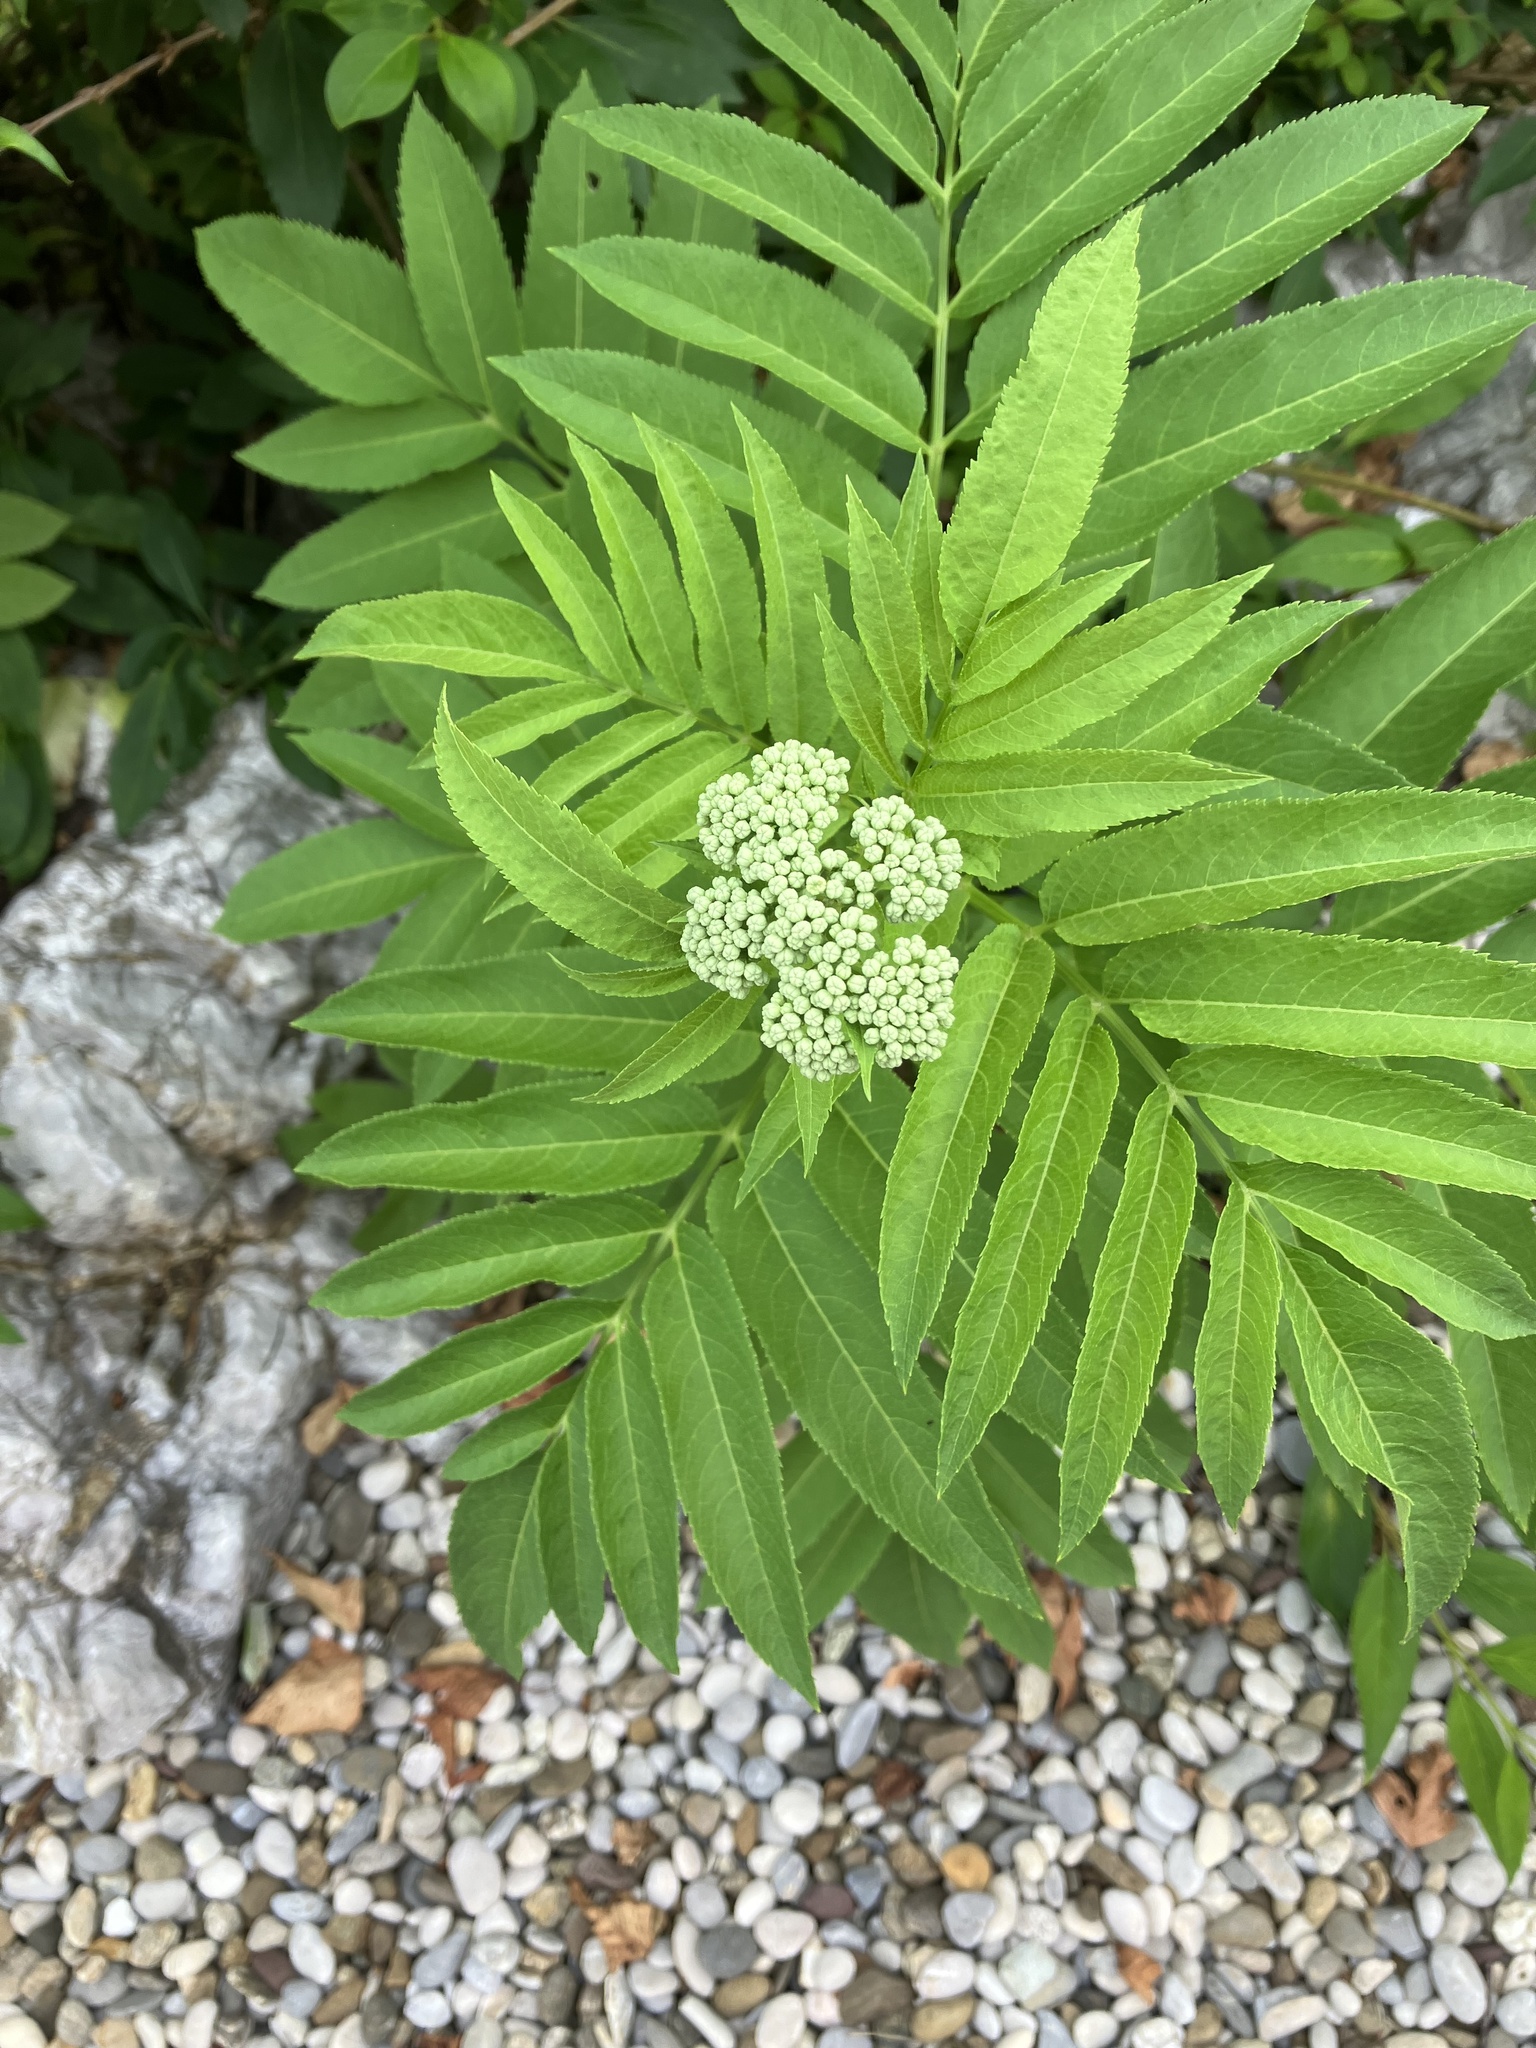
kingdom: Plantae
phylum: Tracheophyta
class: Magnoliopsida
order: Dipsacales
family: Viburnaceae
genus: Sambucus
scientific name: Sambucus ebulus
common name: Dwarf elder
